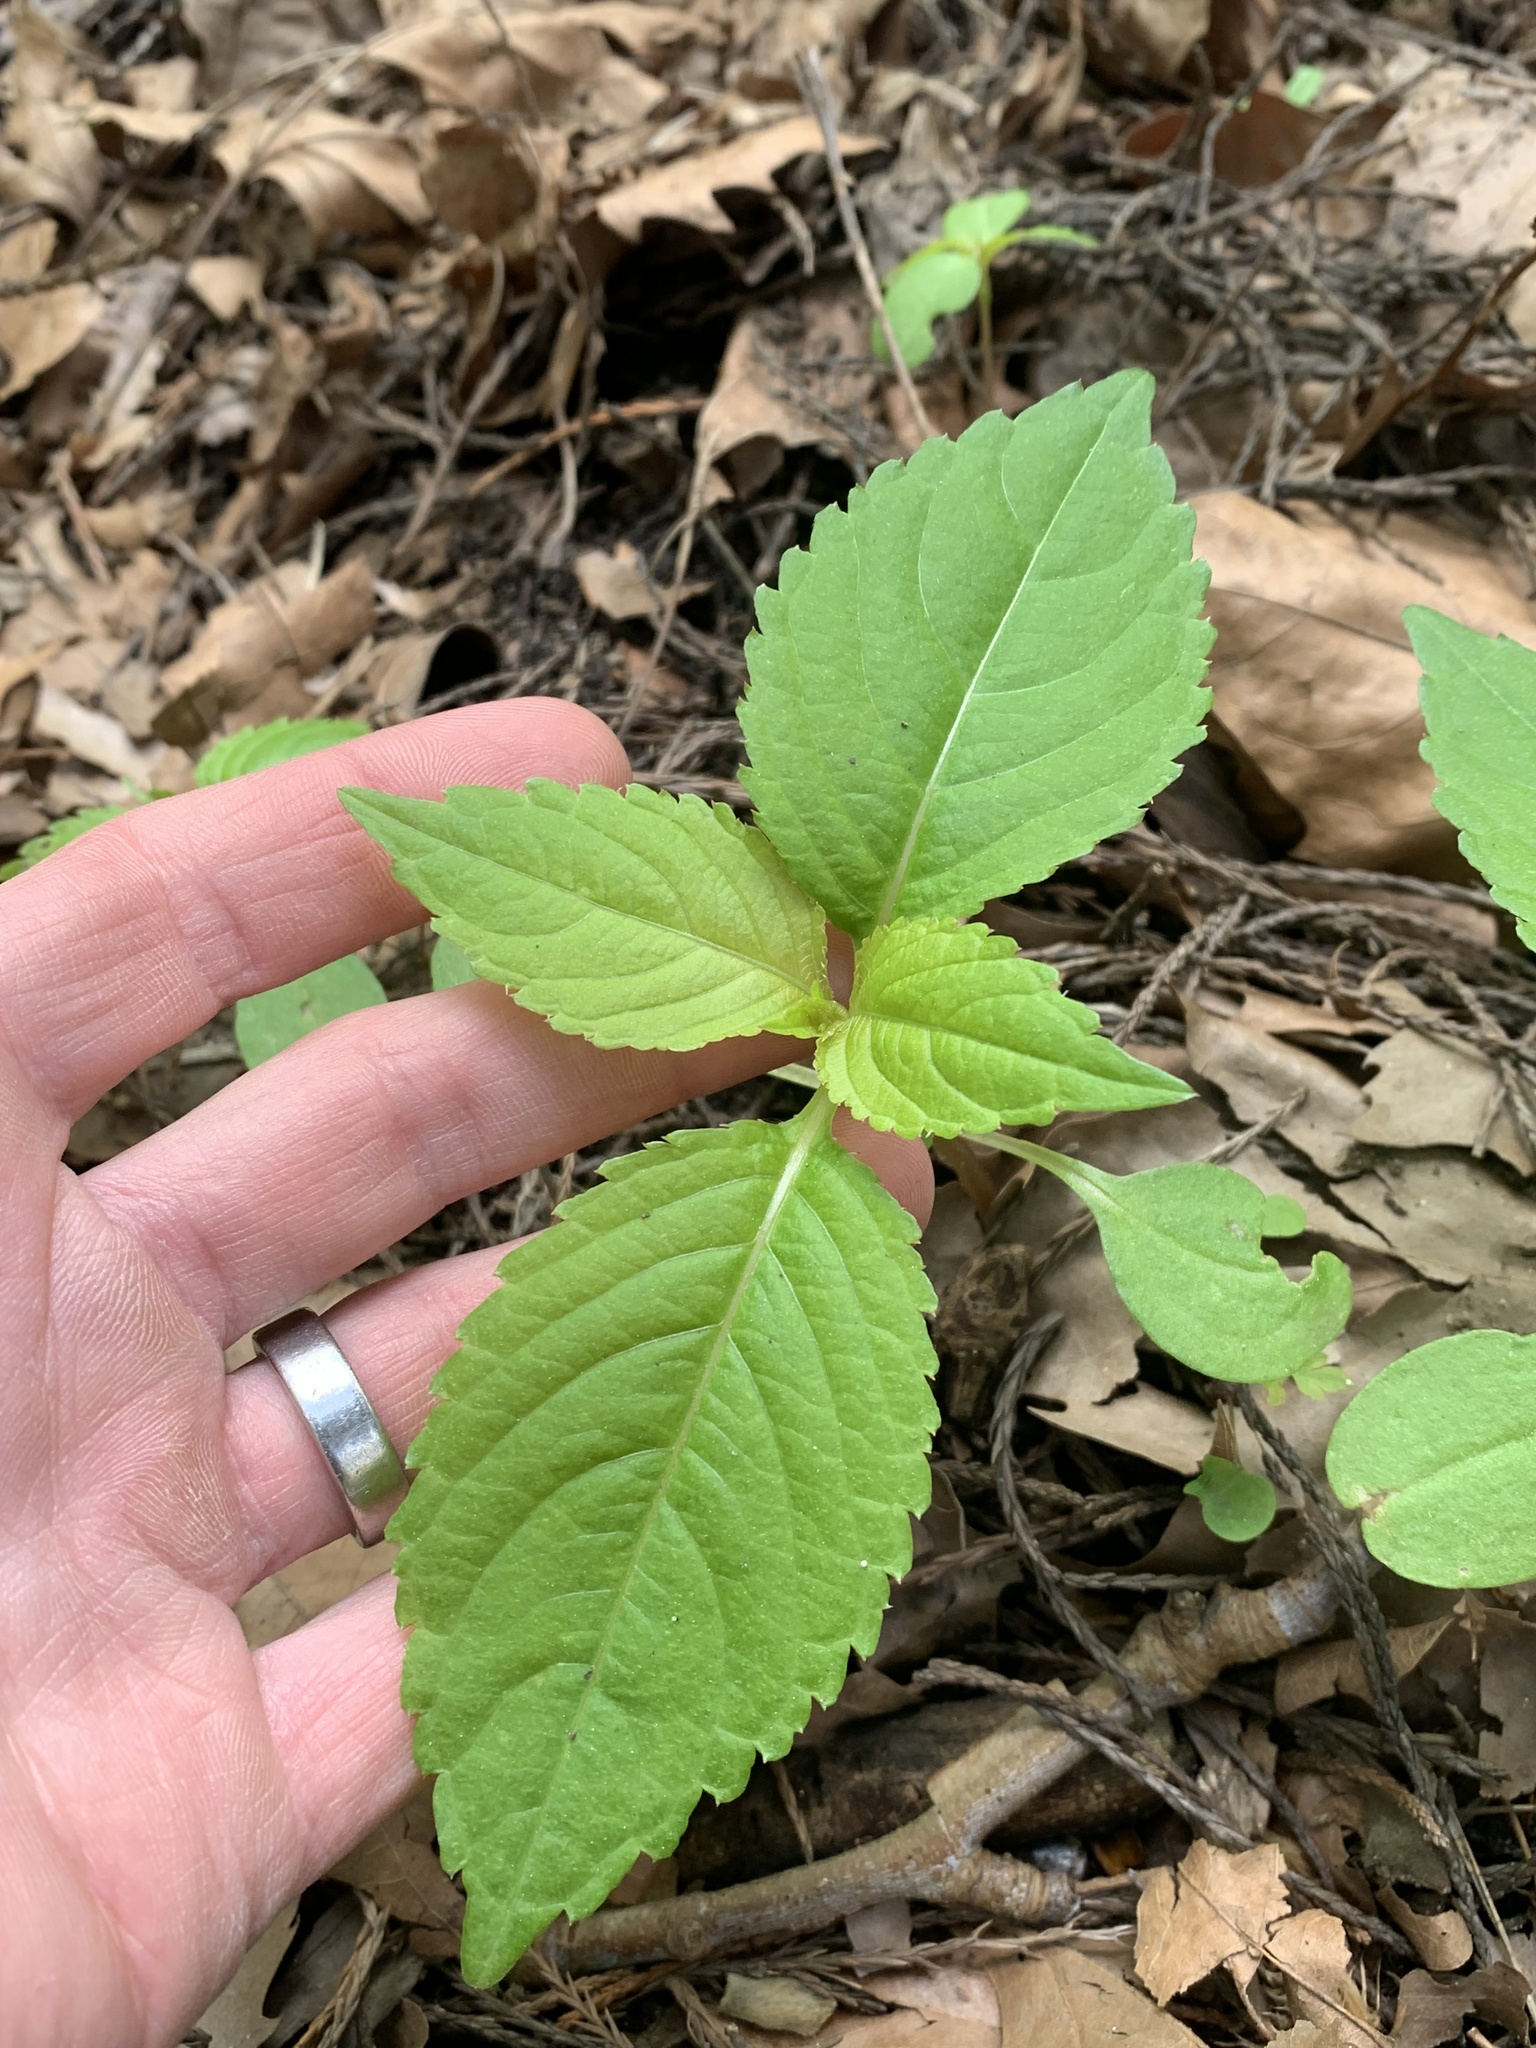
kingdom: Plantae
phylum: Tracheophyta
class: Magnoliopsida
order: Ericales
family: Balsaminaceae
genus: Impatiens
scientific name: Impatiens parviflora
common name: Small balsam
